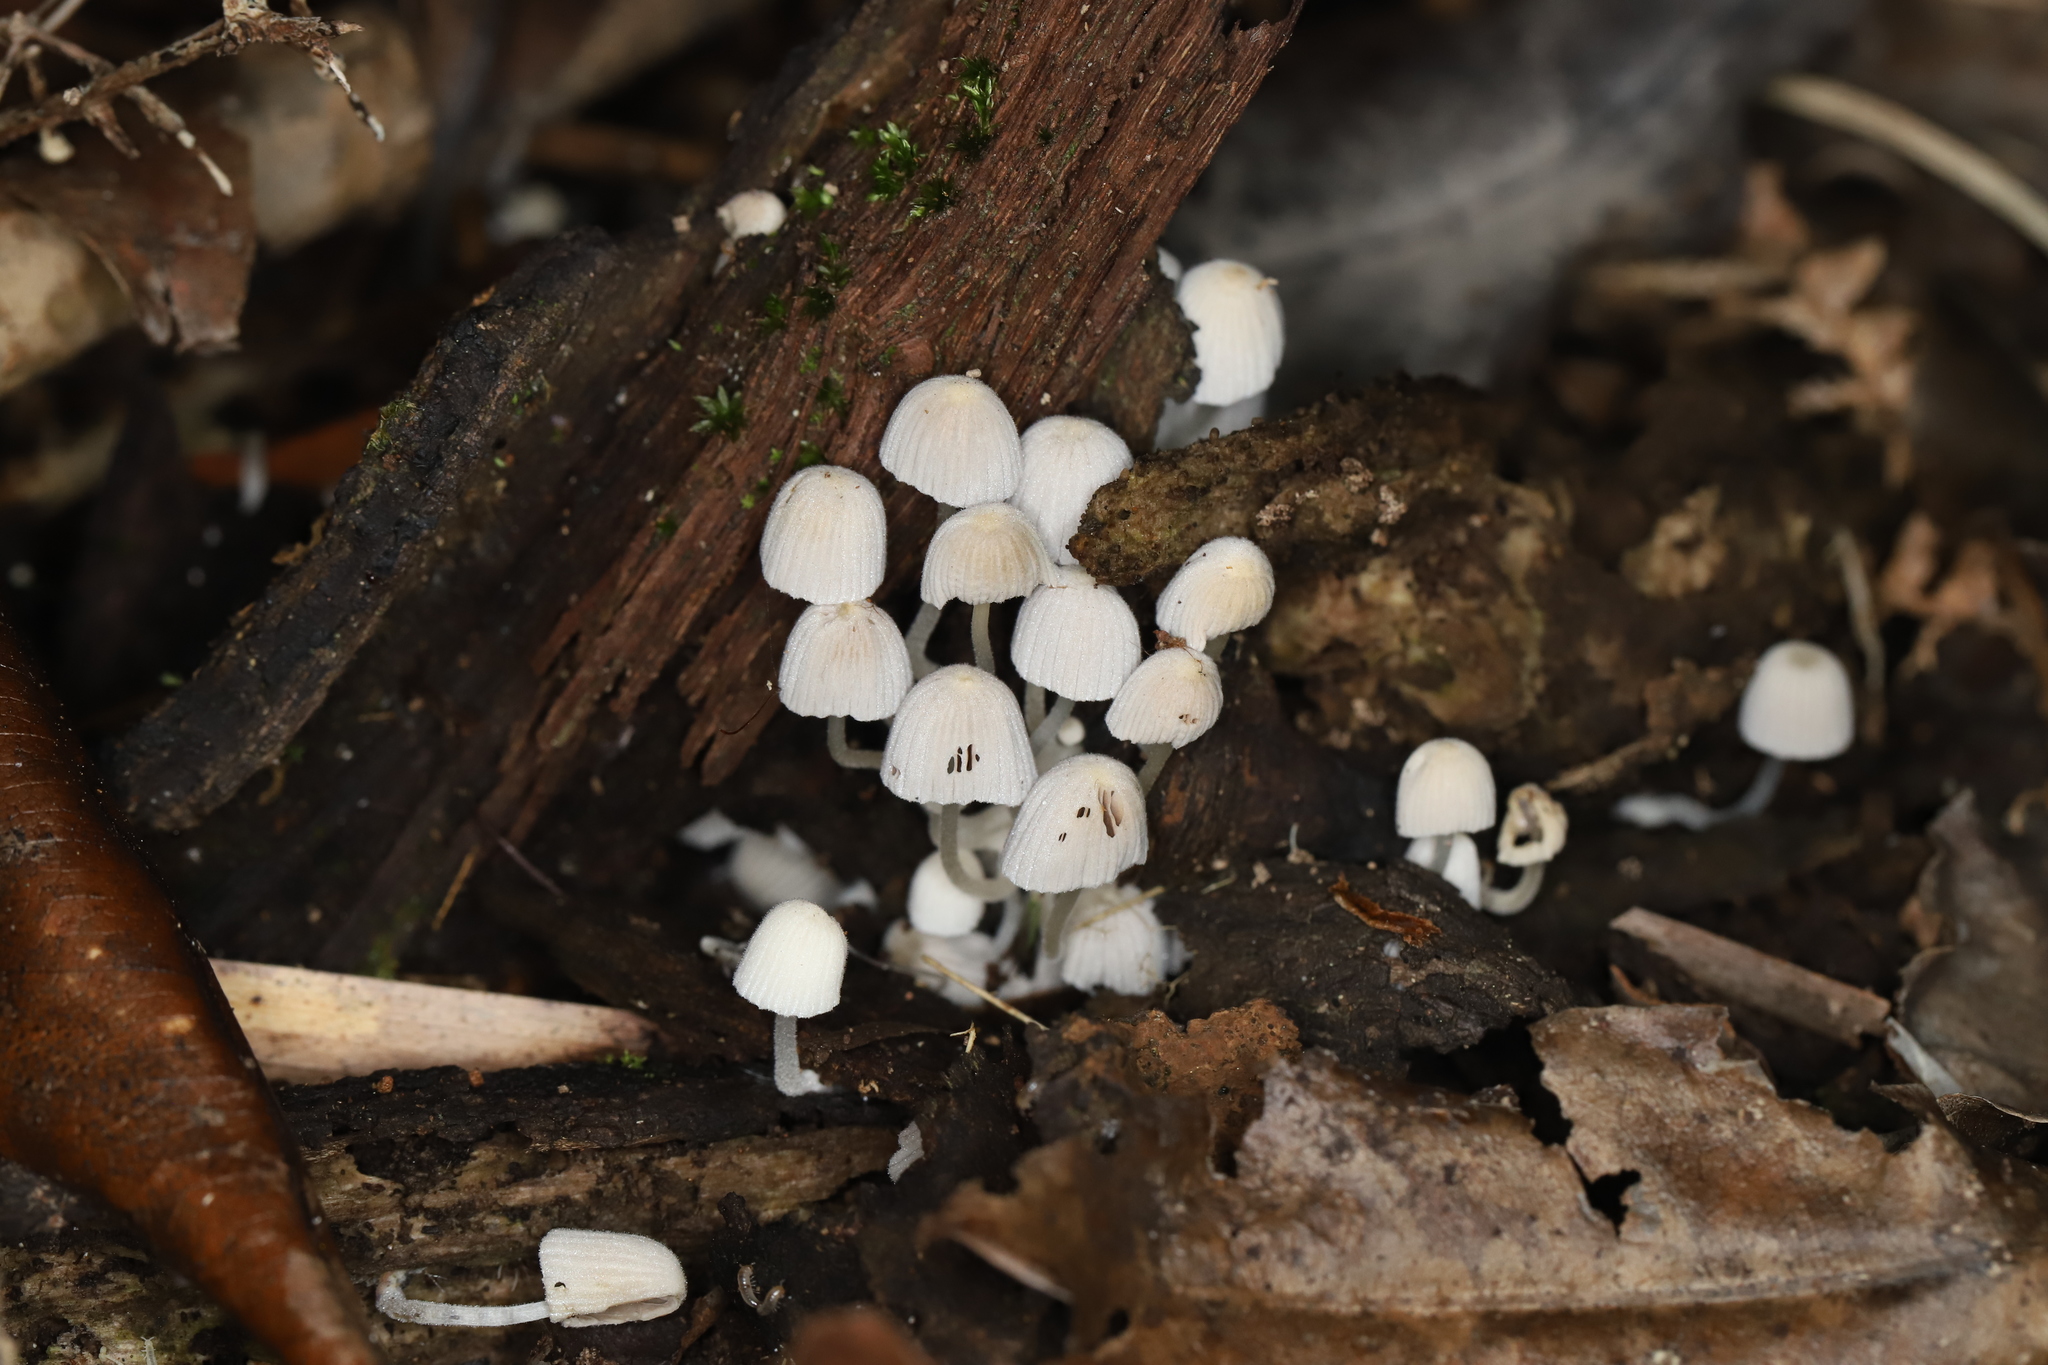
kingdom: Fungi
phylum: Basidiomycota
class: Agaricomycetes
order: Agaricales
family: Psathyrellaceae
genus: Coprinellus
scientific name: Coprinellus disseminatus
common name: Fairies' bonnets
